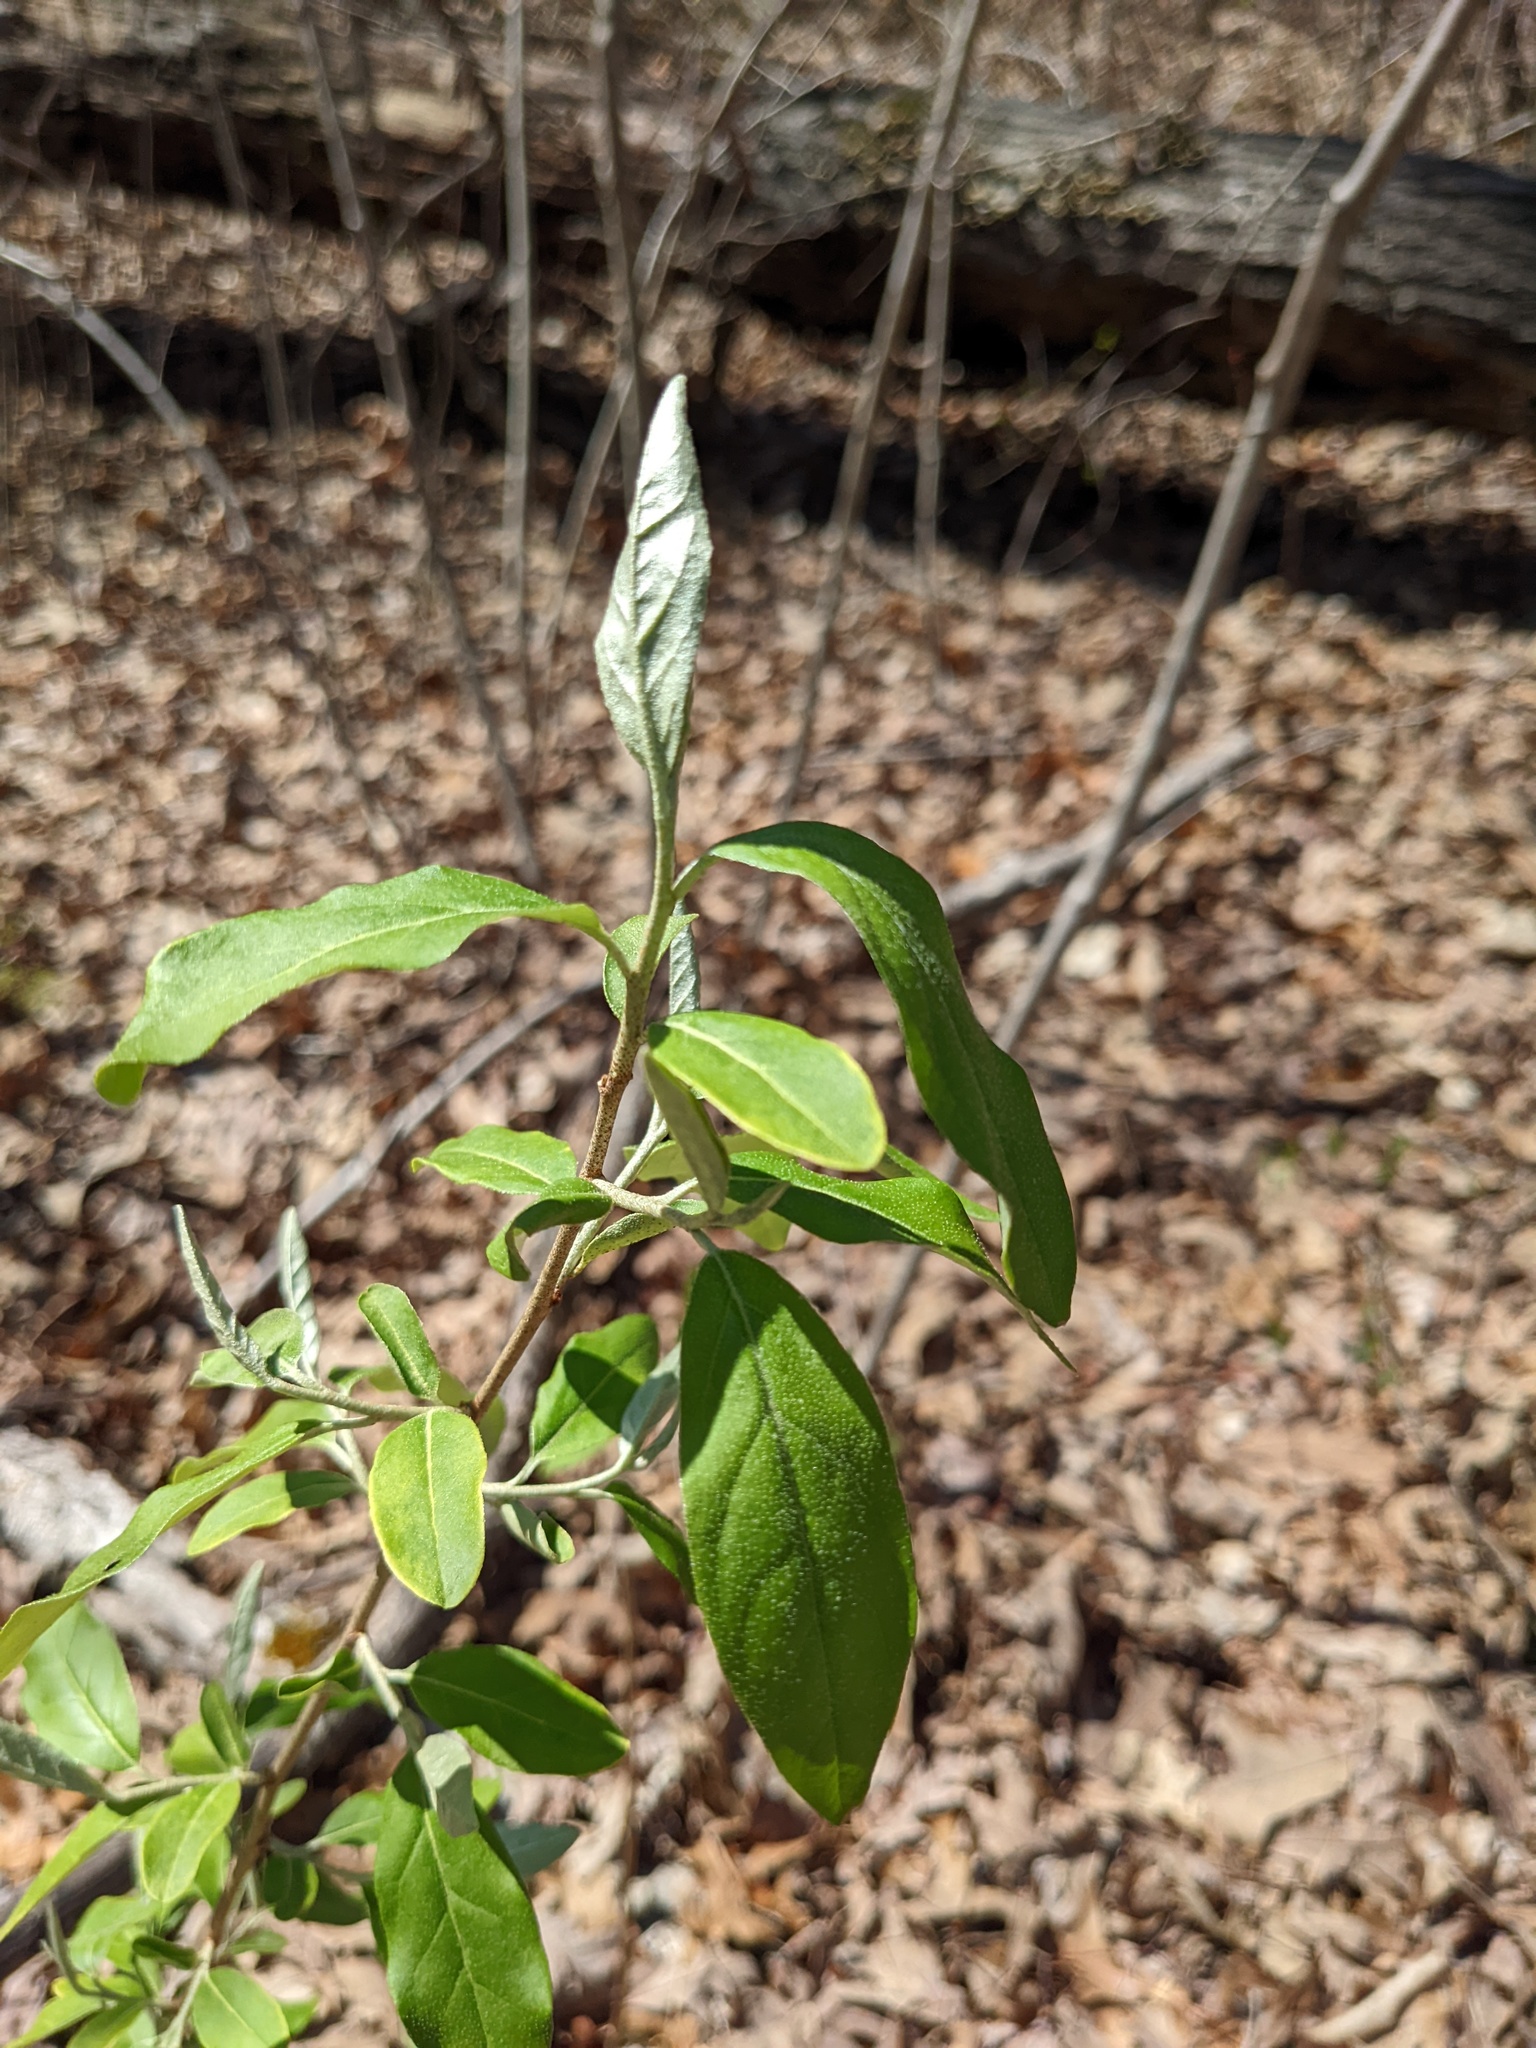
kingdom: Plantae
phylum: Tracheophyta
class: Magnoliopsida
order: Rosales
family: Elaeagnaceae
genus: Elaeagnus
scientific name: Elaeagnus umbellata
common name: Autumn olive
